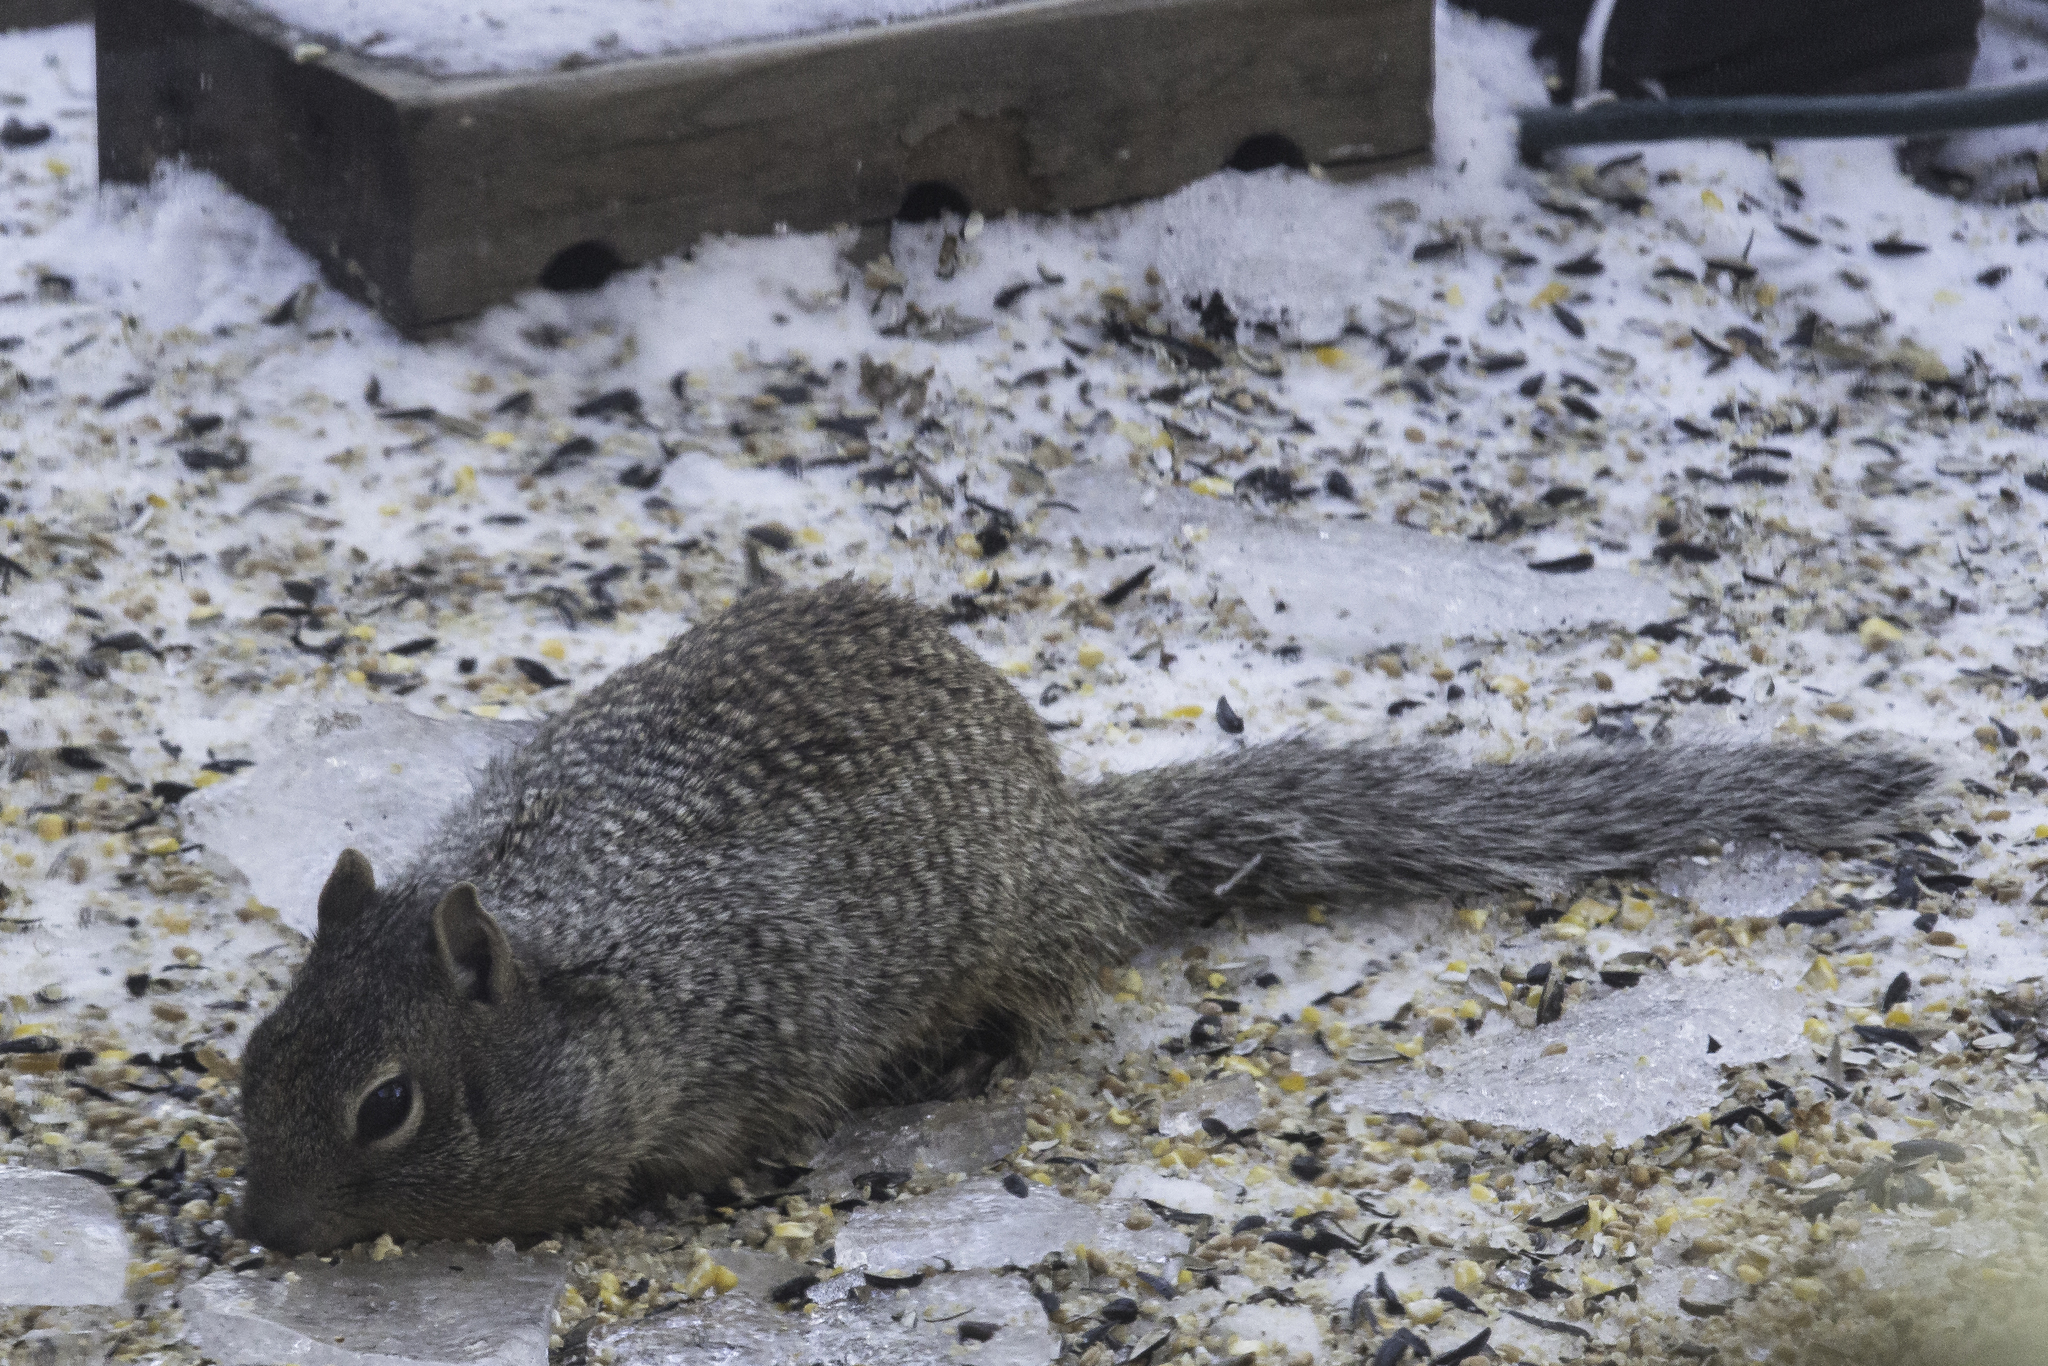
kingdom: Animalia
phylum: Chordata
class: Mammalia
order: Rodentia
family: Sciuridae
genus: Otospermophilus
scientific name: Otospermophilus variegatus
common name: Rock squirrel
